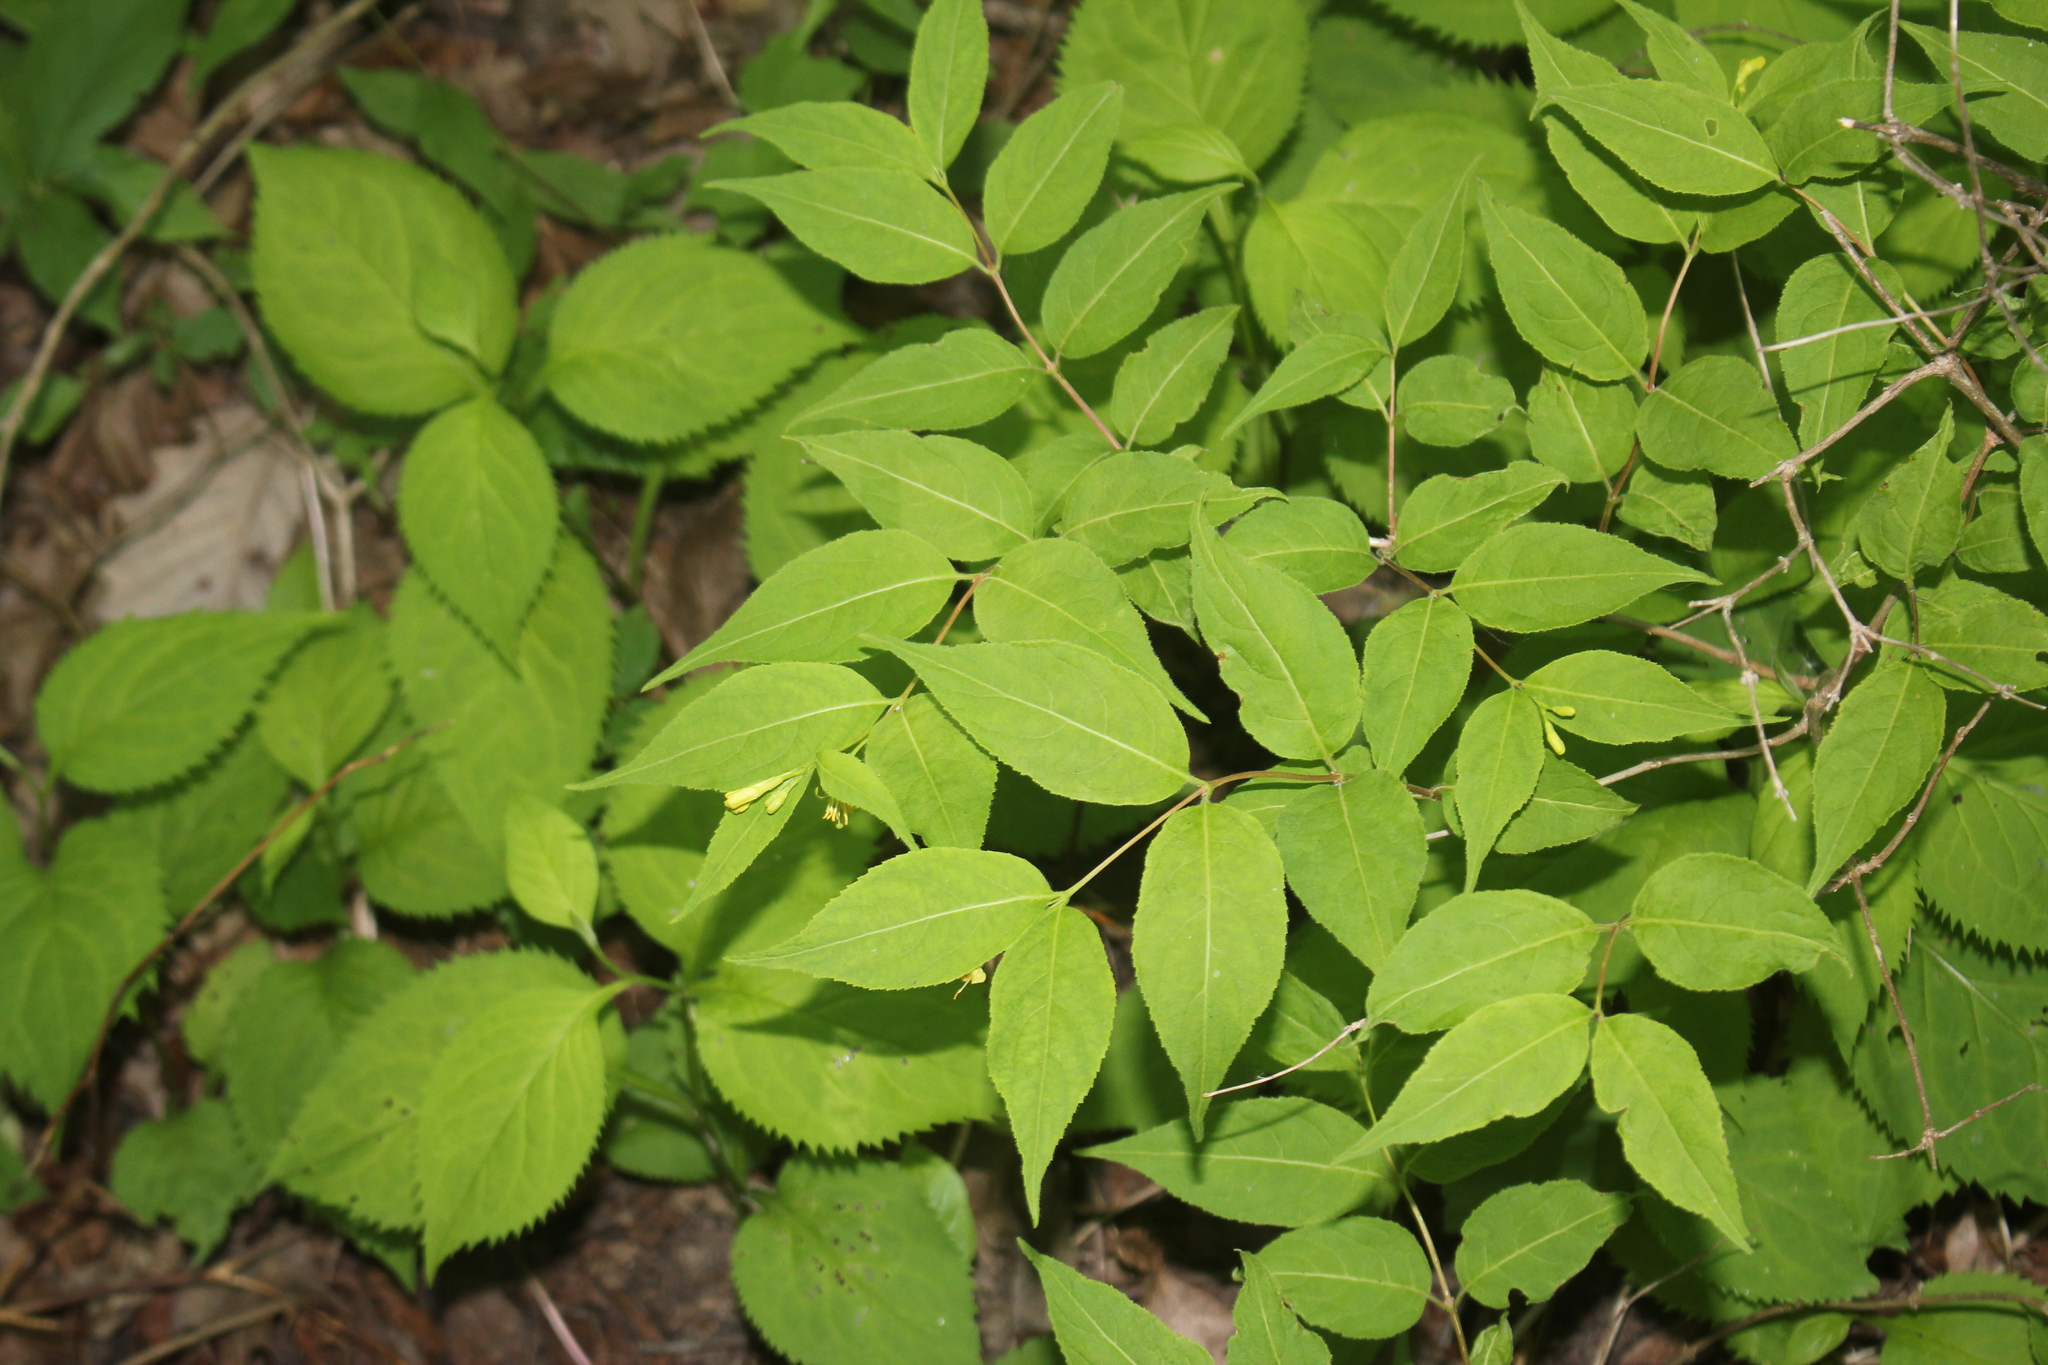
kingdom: Plantae
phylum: Tracheophyta
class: Magnoliopsida
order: Dipsacales
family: Caprifoliaceae
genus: Diervilla
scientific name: Diervilla lonicera
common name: Bush-honeysuckle
